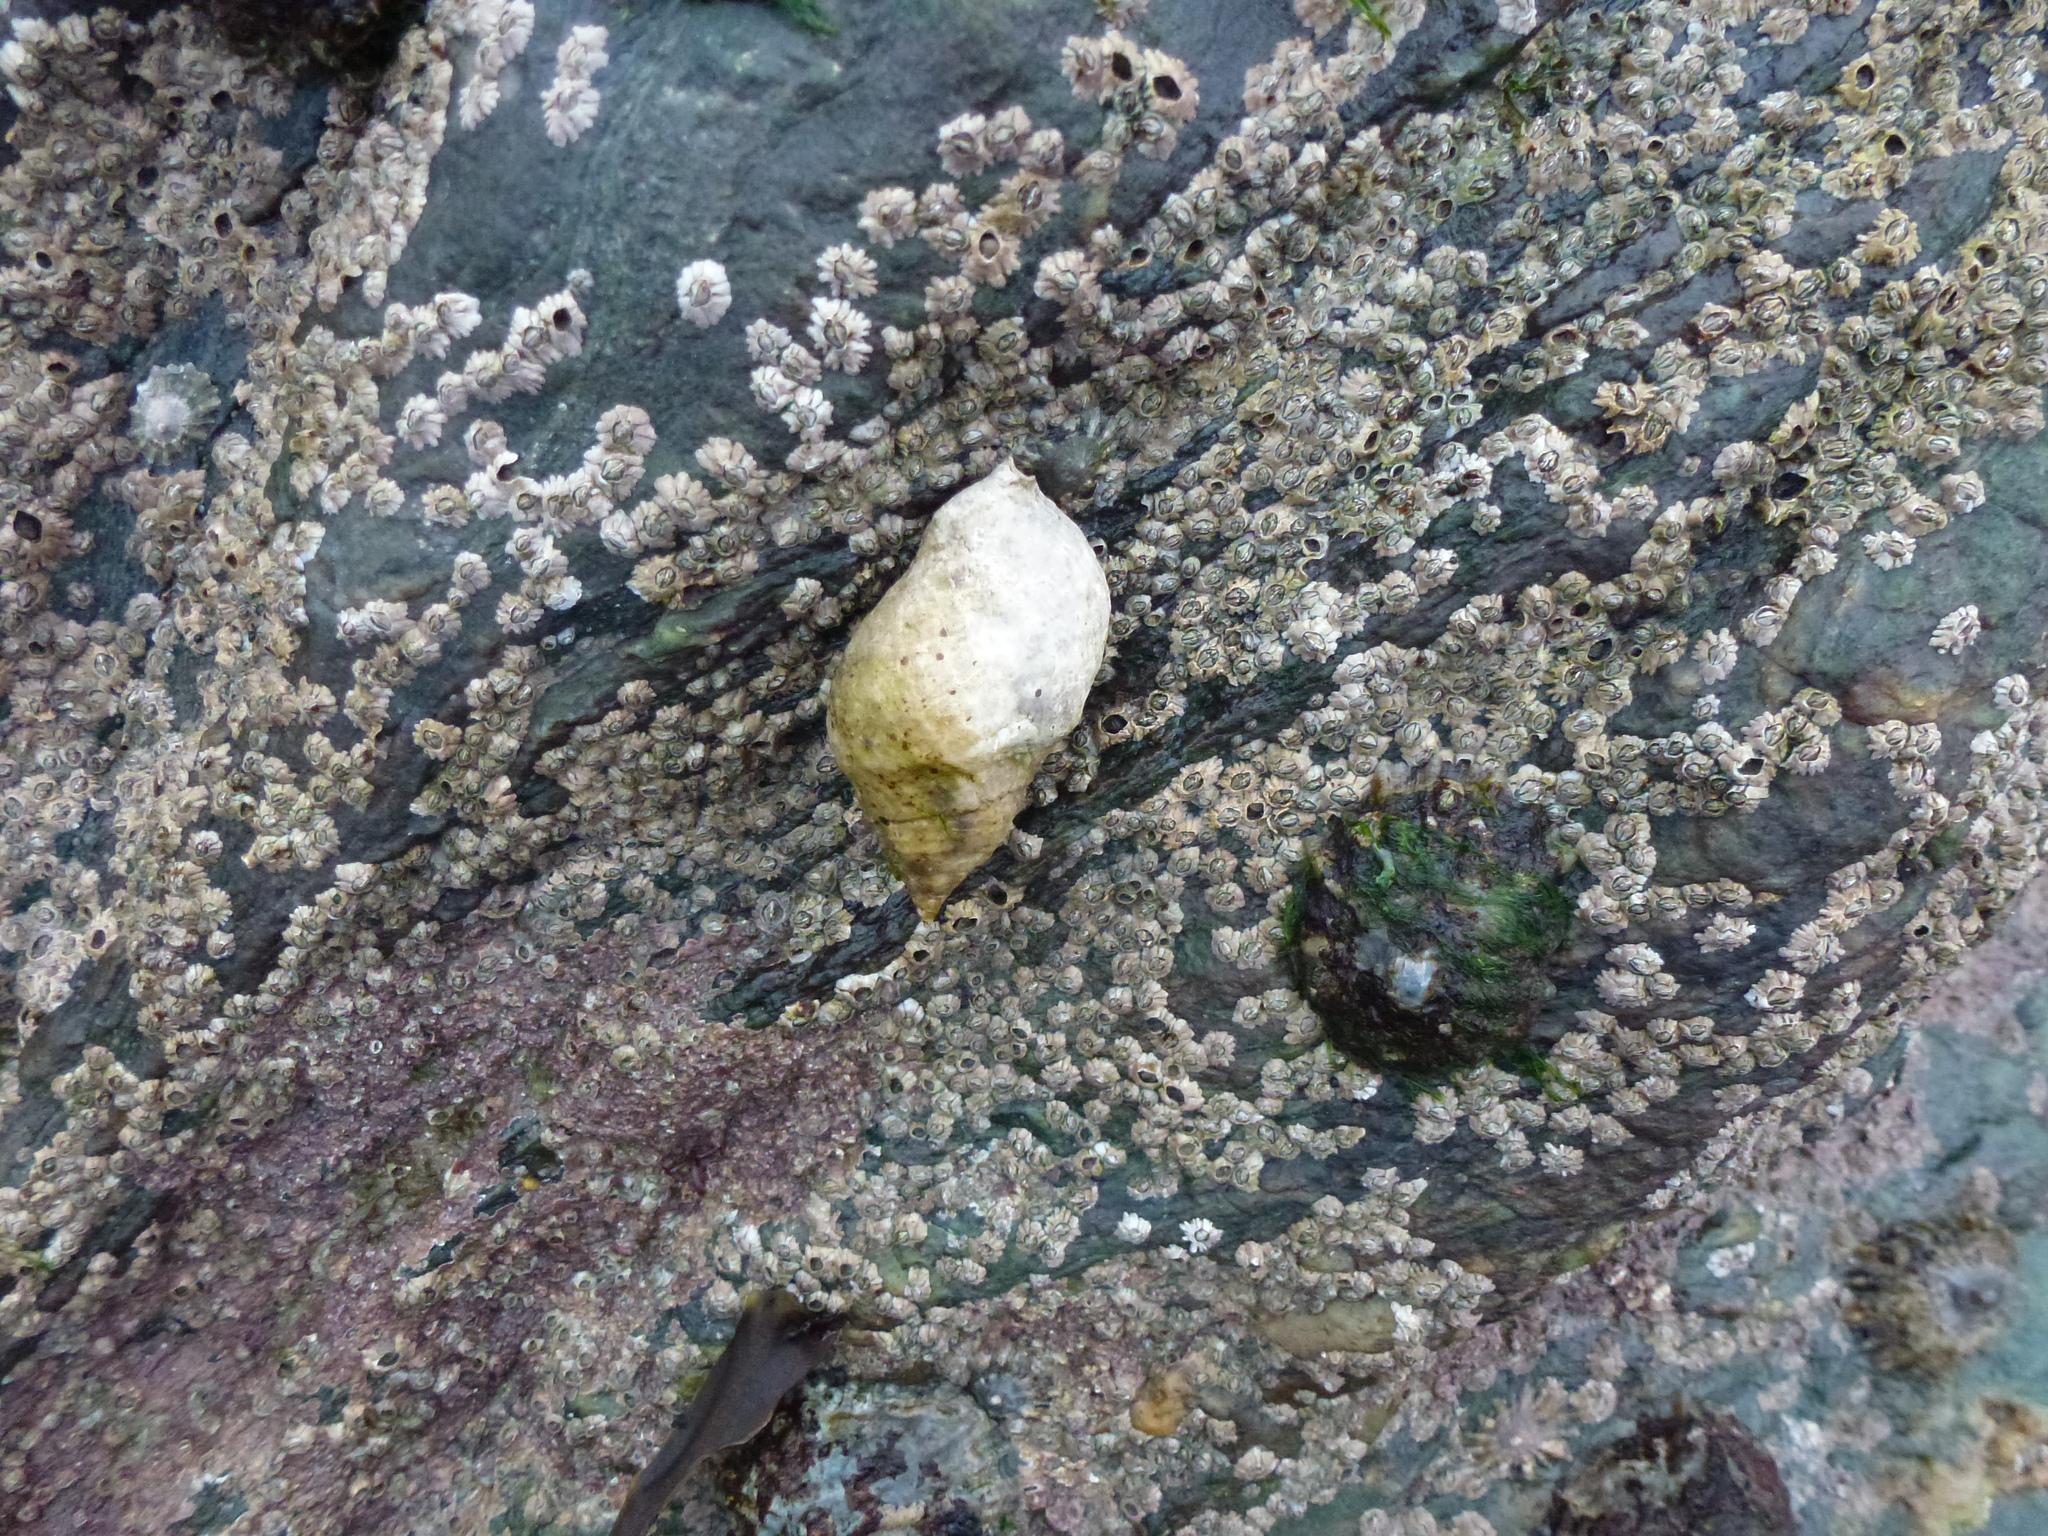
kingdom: Animalia
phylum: Mollusca
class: Gastropoda
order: Neogastropoda
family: Muricidae
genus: Nucella
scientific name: Nucella lapillus
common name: Dog whelk
